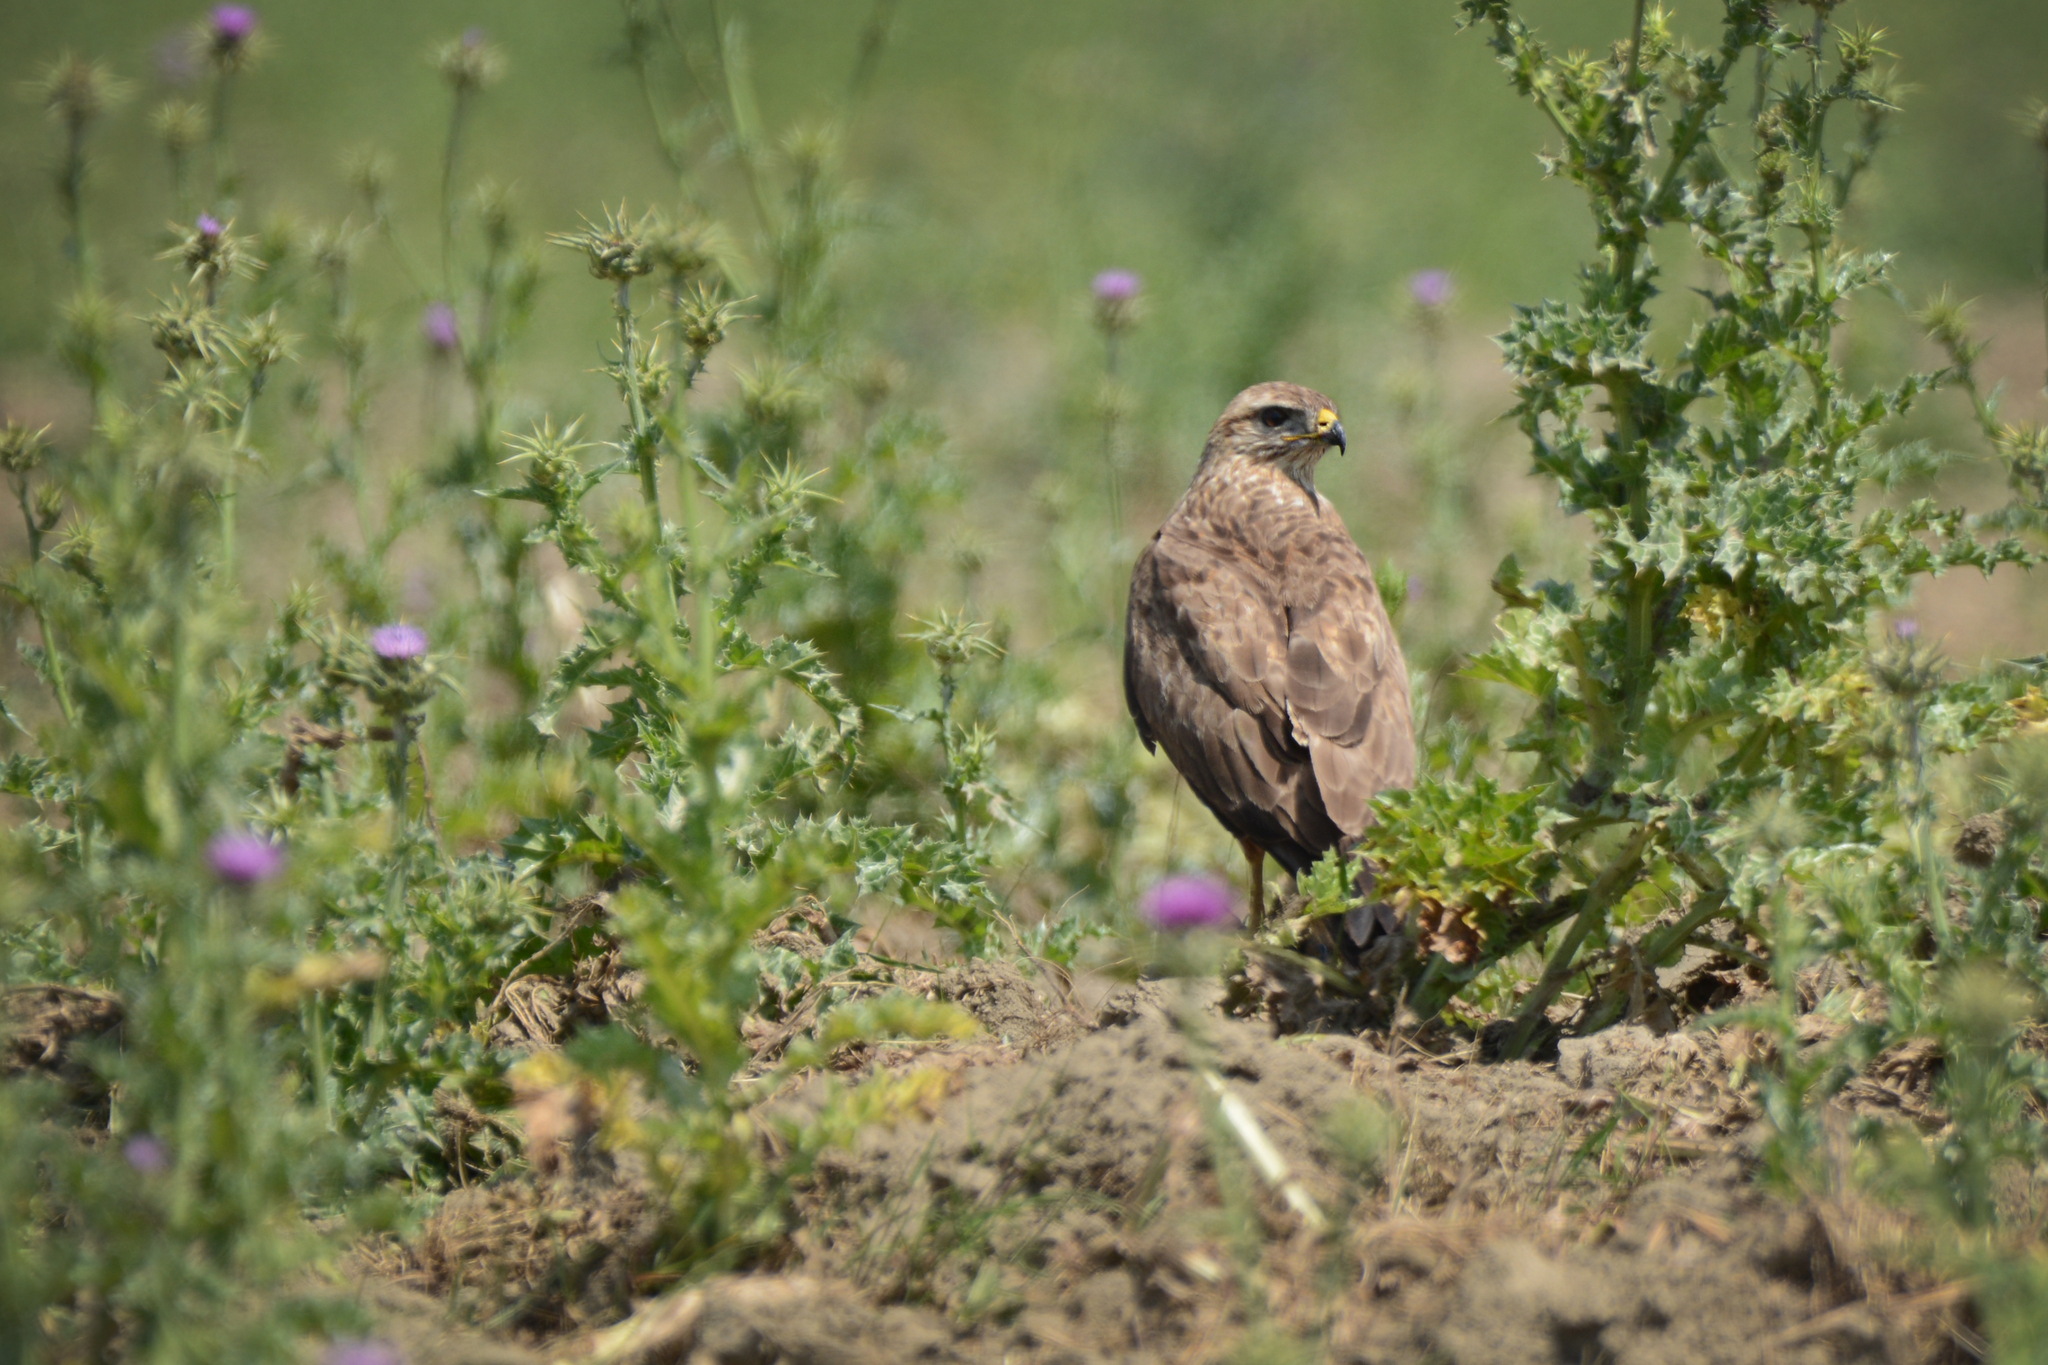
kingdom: Animalia
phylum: Chordata
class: Aves
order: Accipitriformes
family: Accipitridae
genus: Buteo
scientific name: Buteo buteo
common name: Common buzzard
